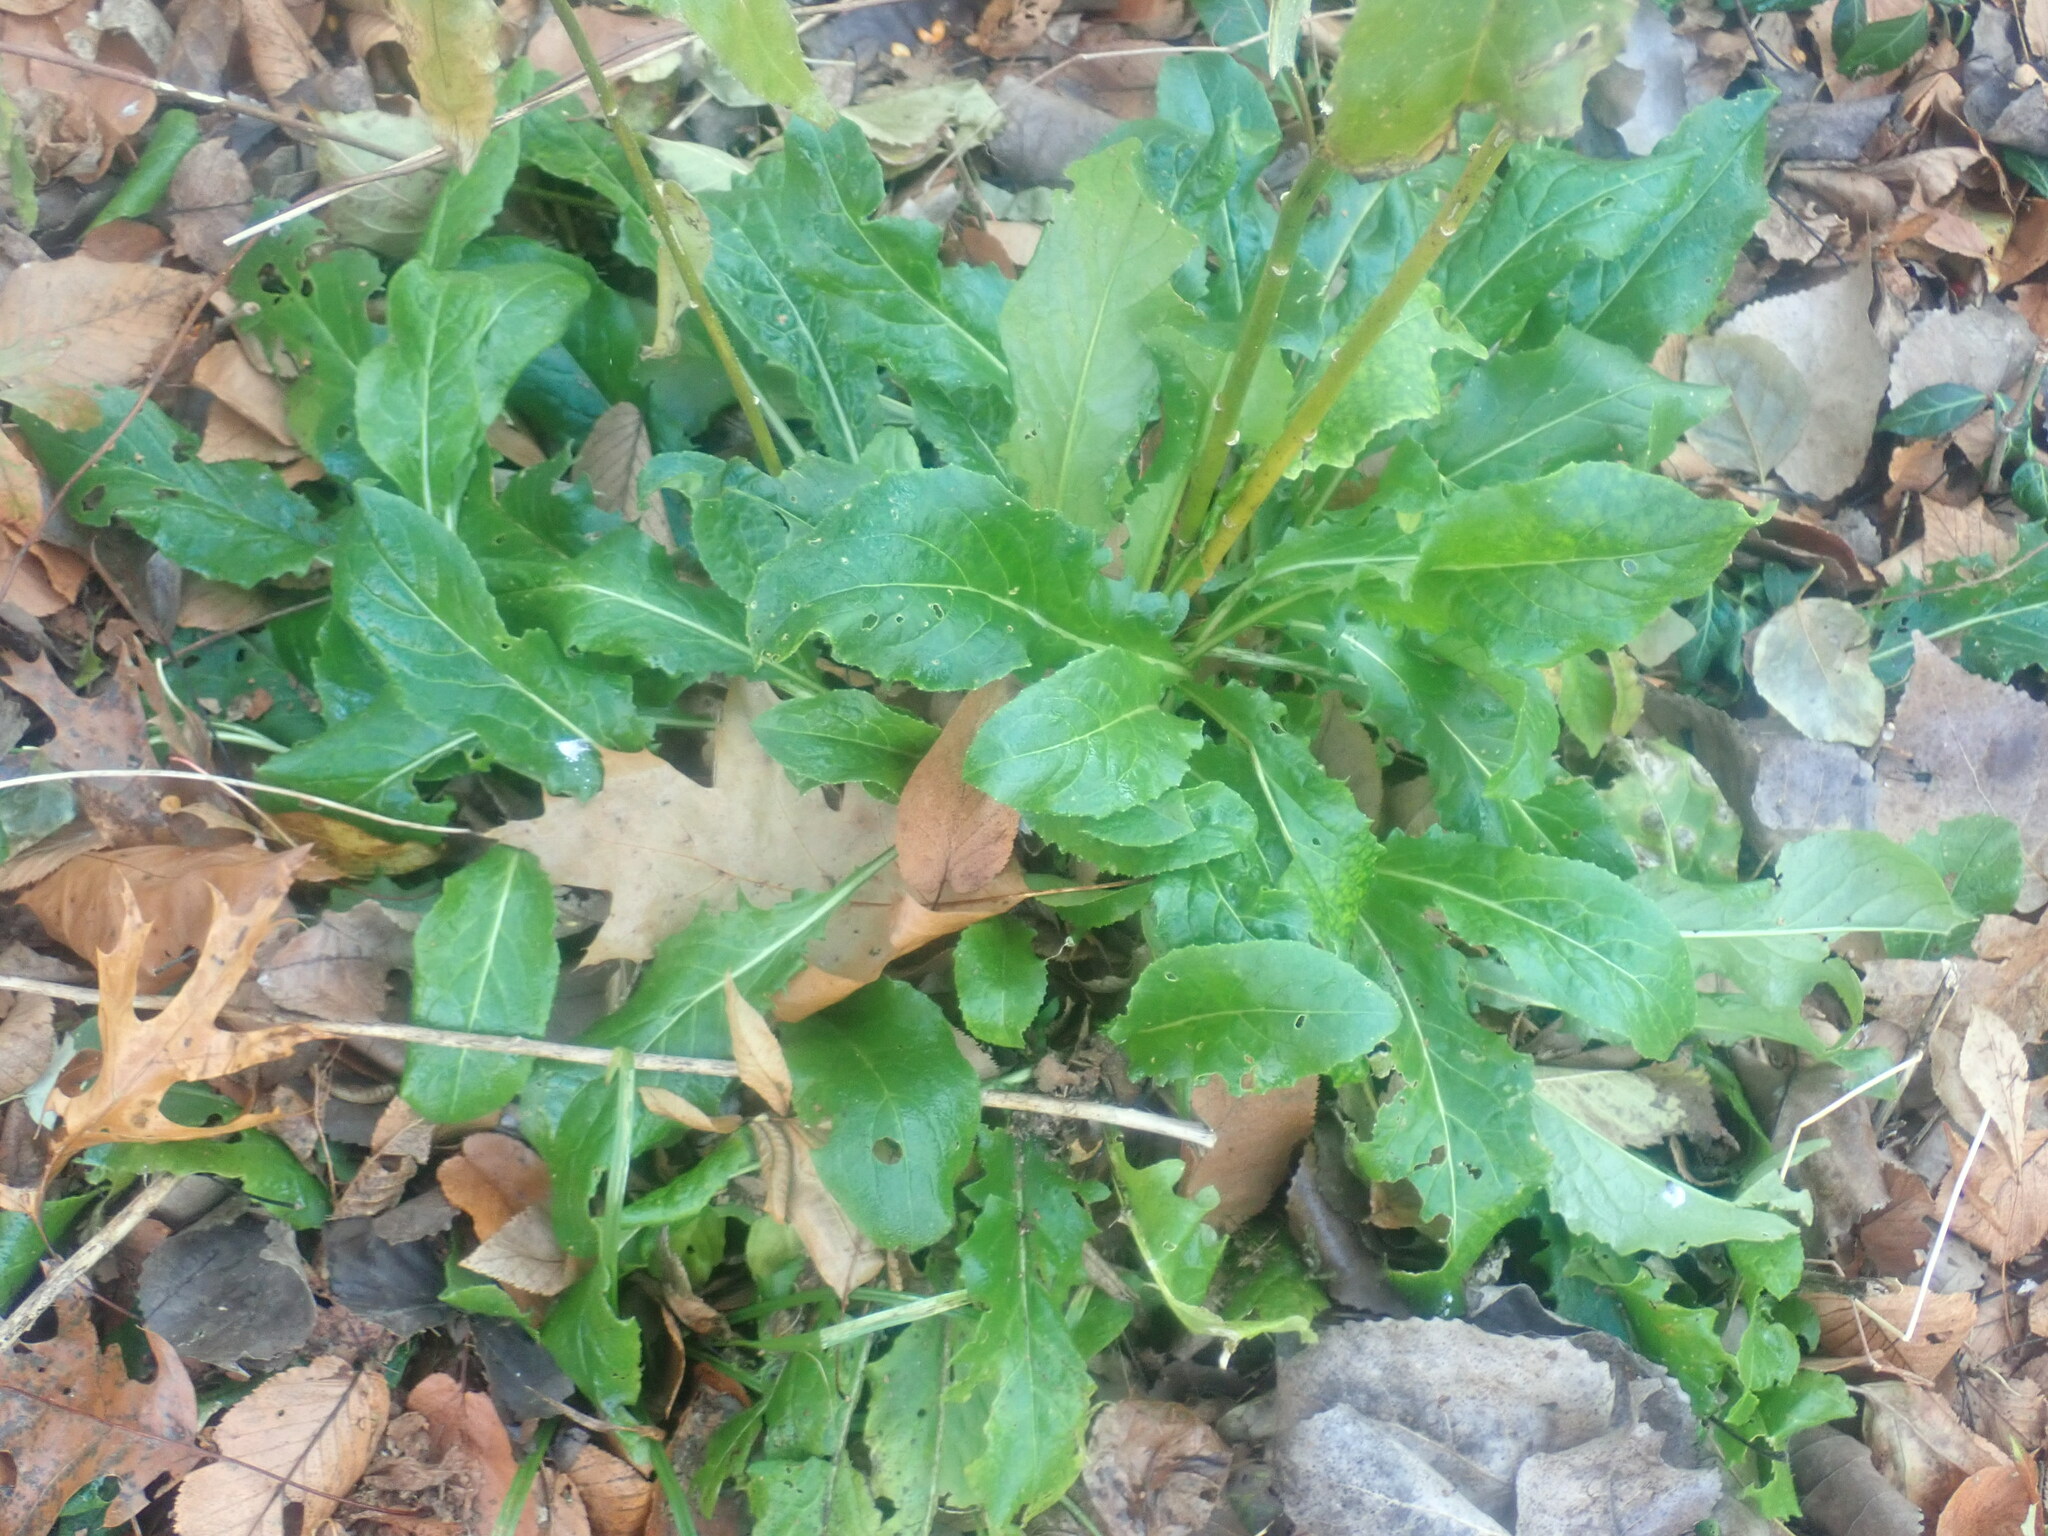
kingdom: Plantae
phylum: Tracheophyta
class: Magnoliopsida
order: Brassicales
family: Brassicaceae
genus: Hesperis
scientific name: Hesperis matronalis
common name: Dame's-violet
